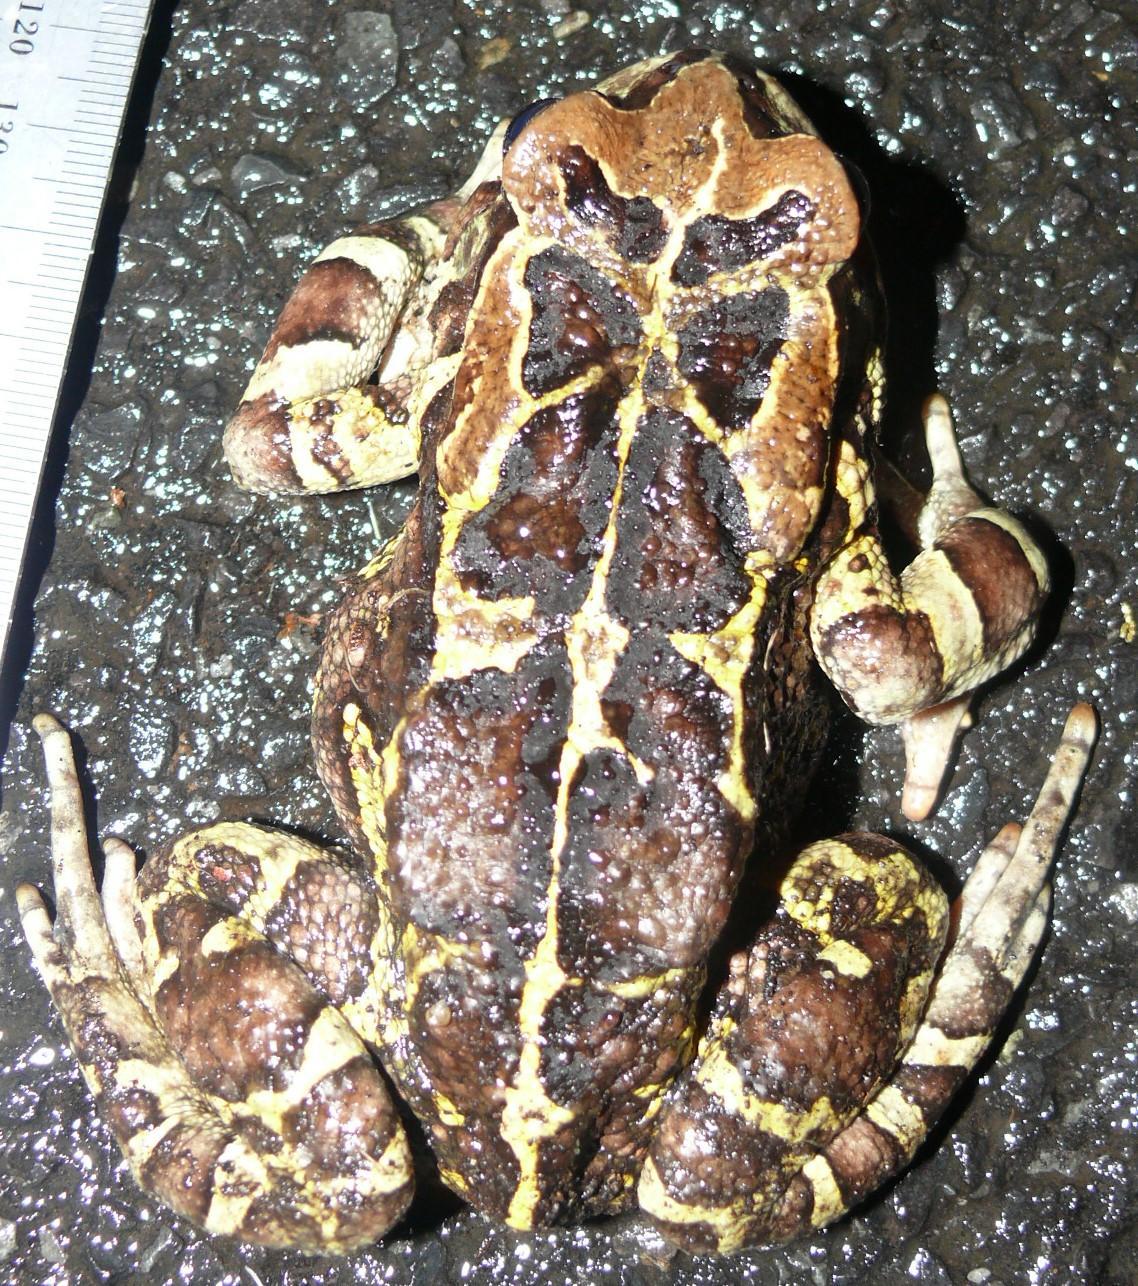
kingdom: Animalia
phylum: Chordata
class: Amphibia
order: Anura
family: Bufonidae
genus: Sclerophrys
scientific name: Sclerophrys pantherina
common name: Panther toad
